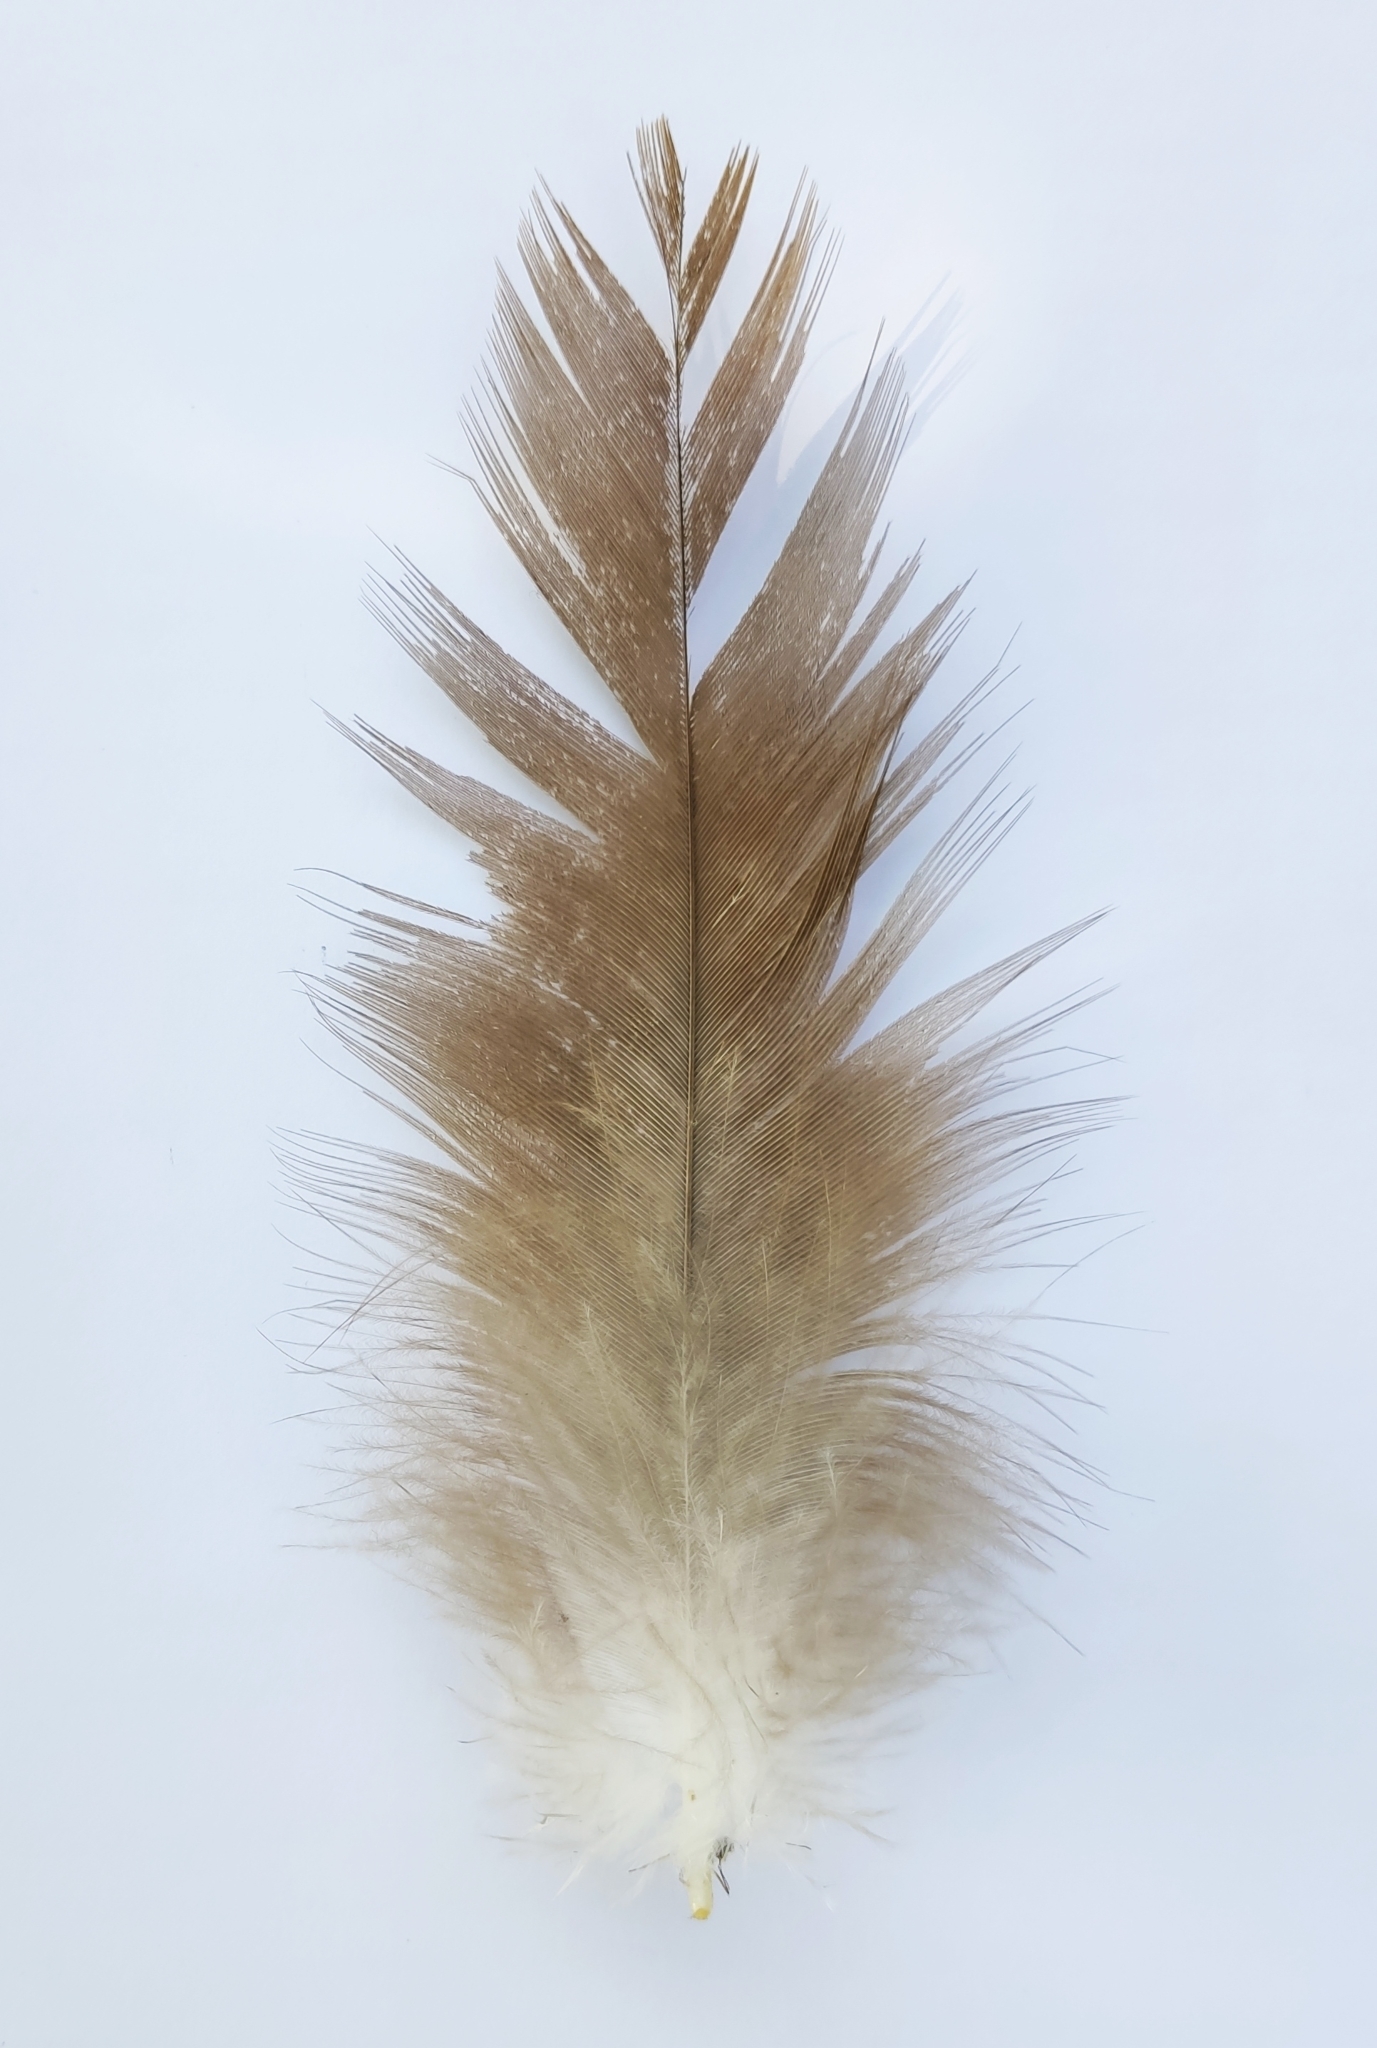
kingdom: Animalia
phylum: Chordata
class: Aves
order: Accipitriformes
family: Accipitridae
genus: Milvus
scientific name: Milvus migrans
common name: Black kite
